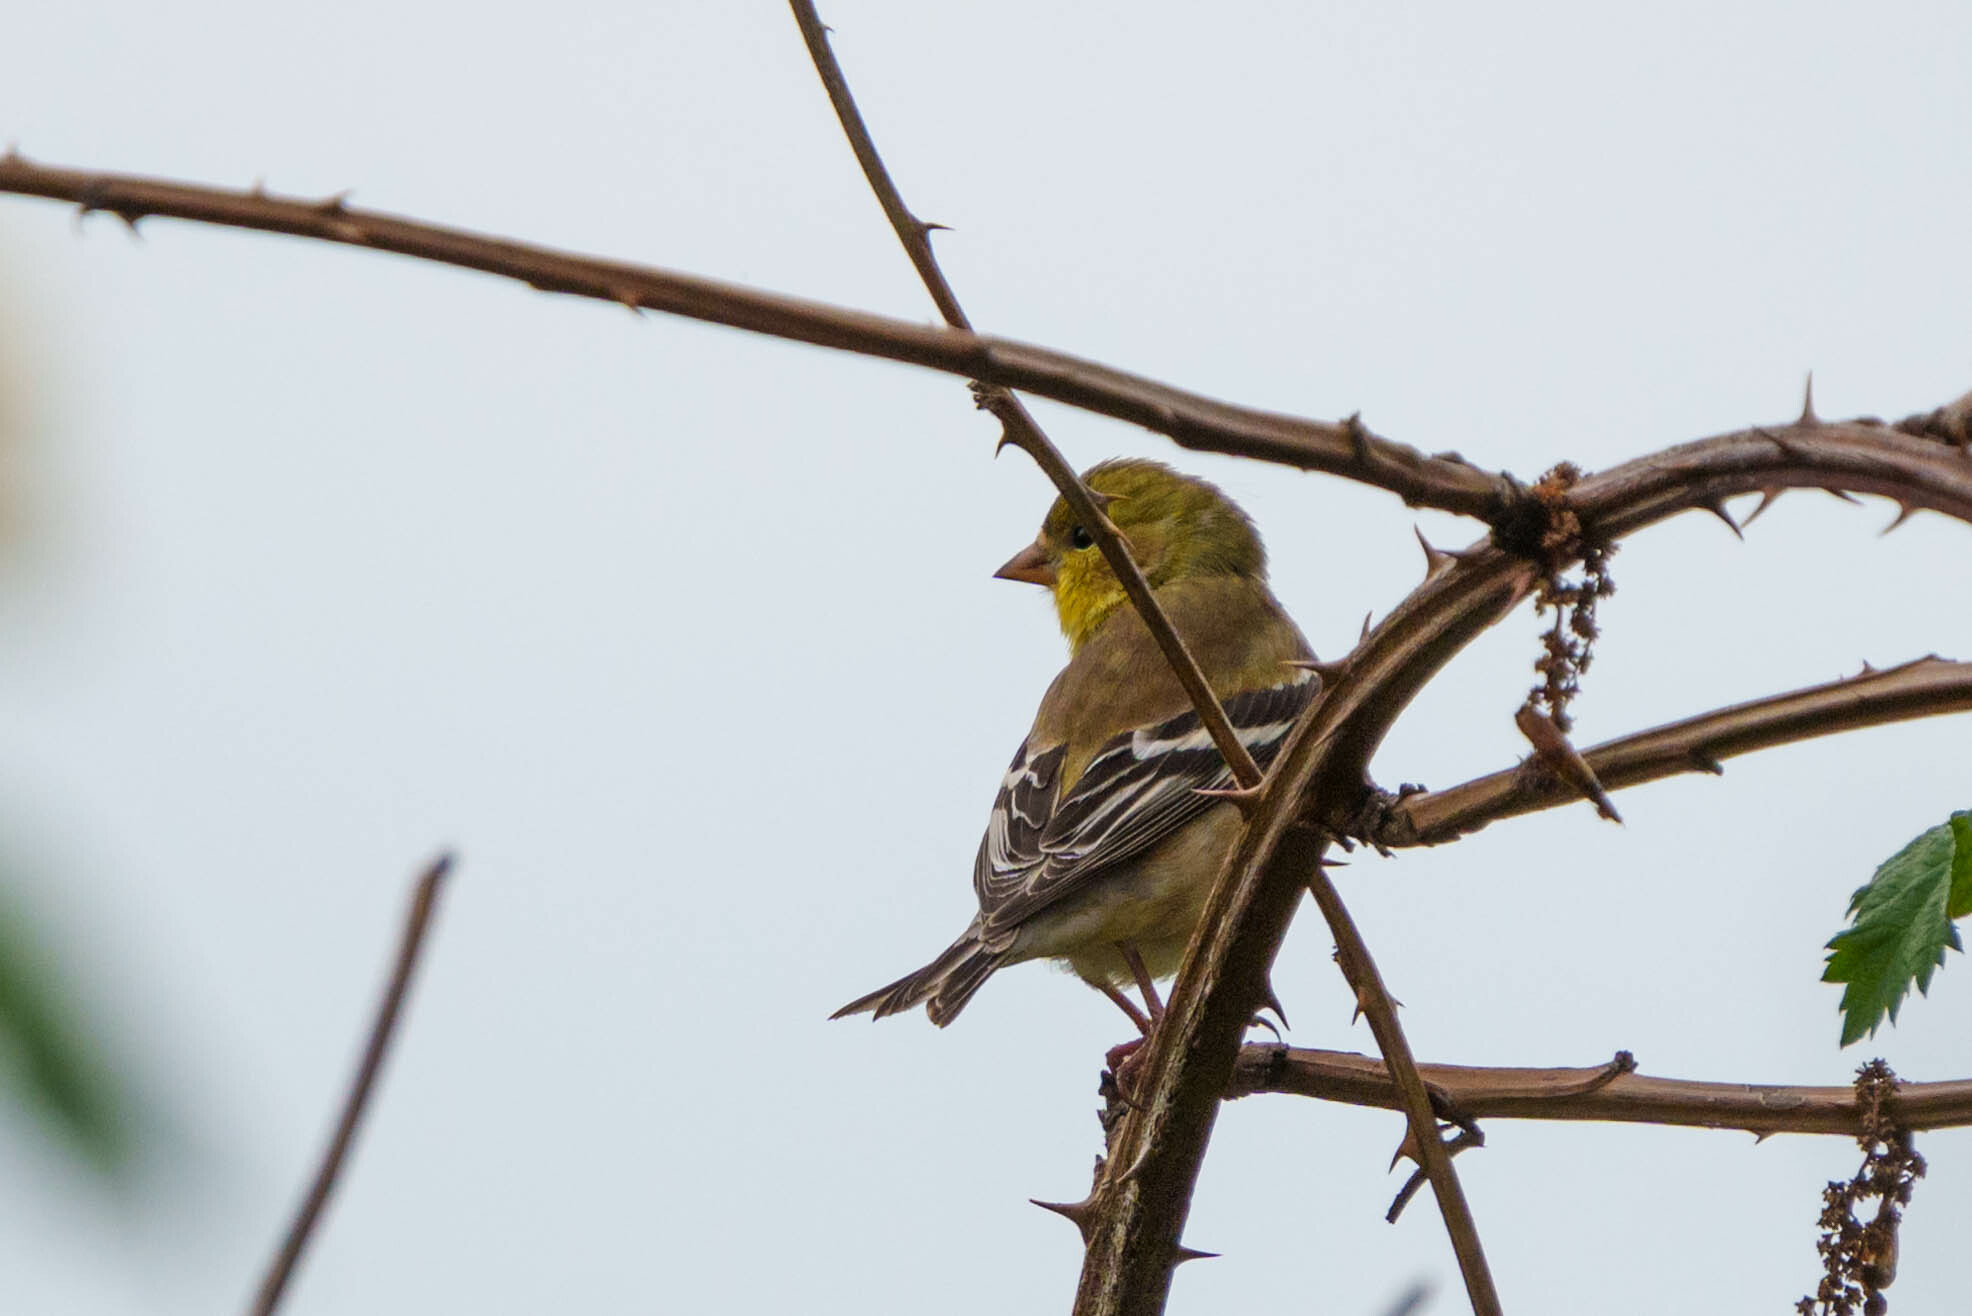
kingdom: Animalia
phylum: Chordata
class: Aves
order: Passeriformes
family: Fringillidae
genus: Spinus
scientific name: Spinus tristis
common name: American goldfinch
